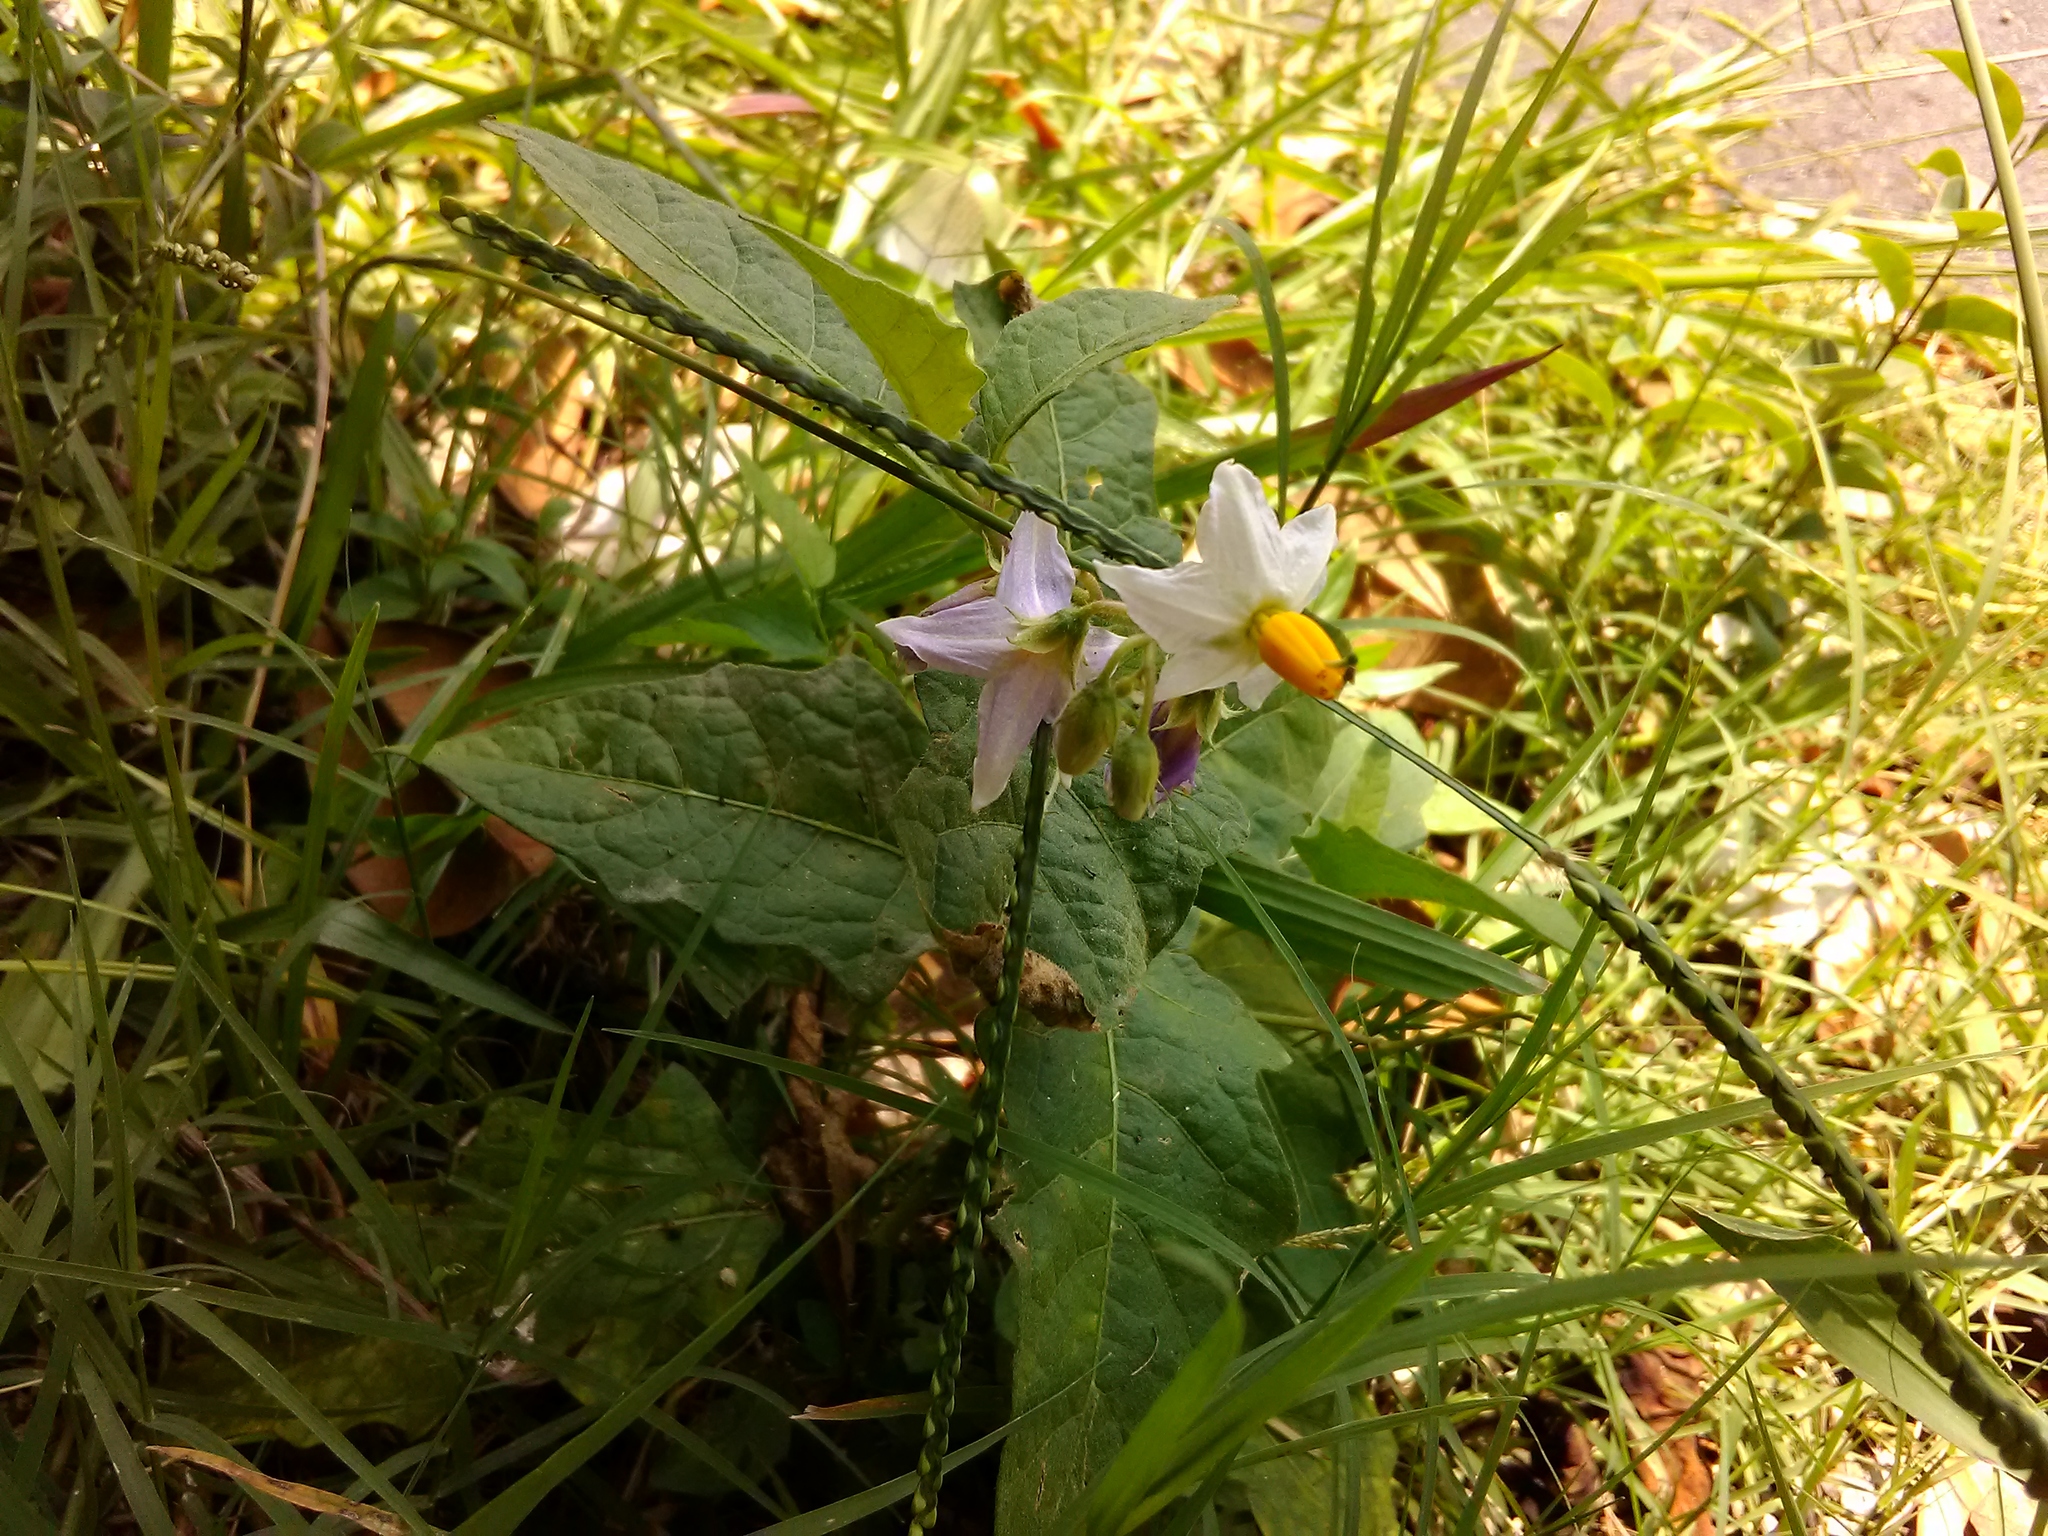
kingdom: Plantae
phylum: Tracheophyta
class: Magnoliopsida
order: Solanales
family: Solanaceae
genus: Solanum
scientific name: Solanum carolinense
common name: Horse-nettle
